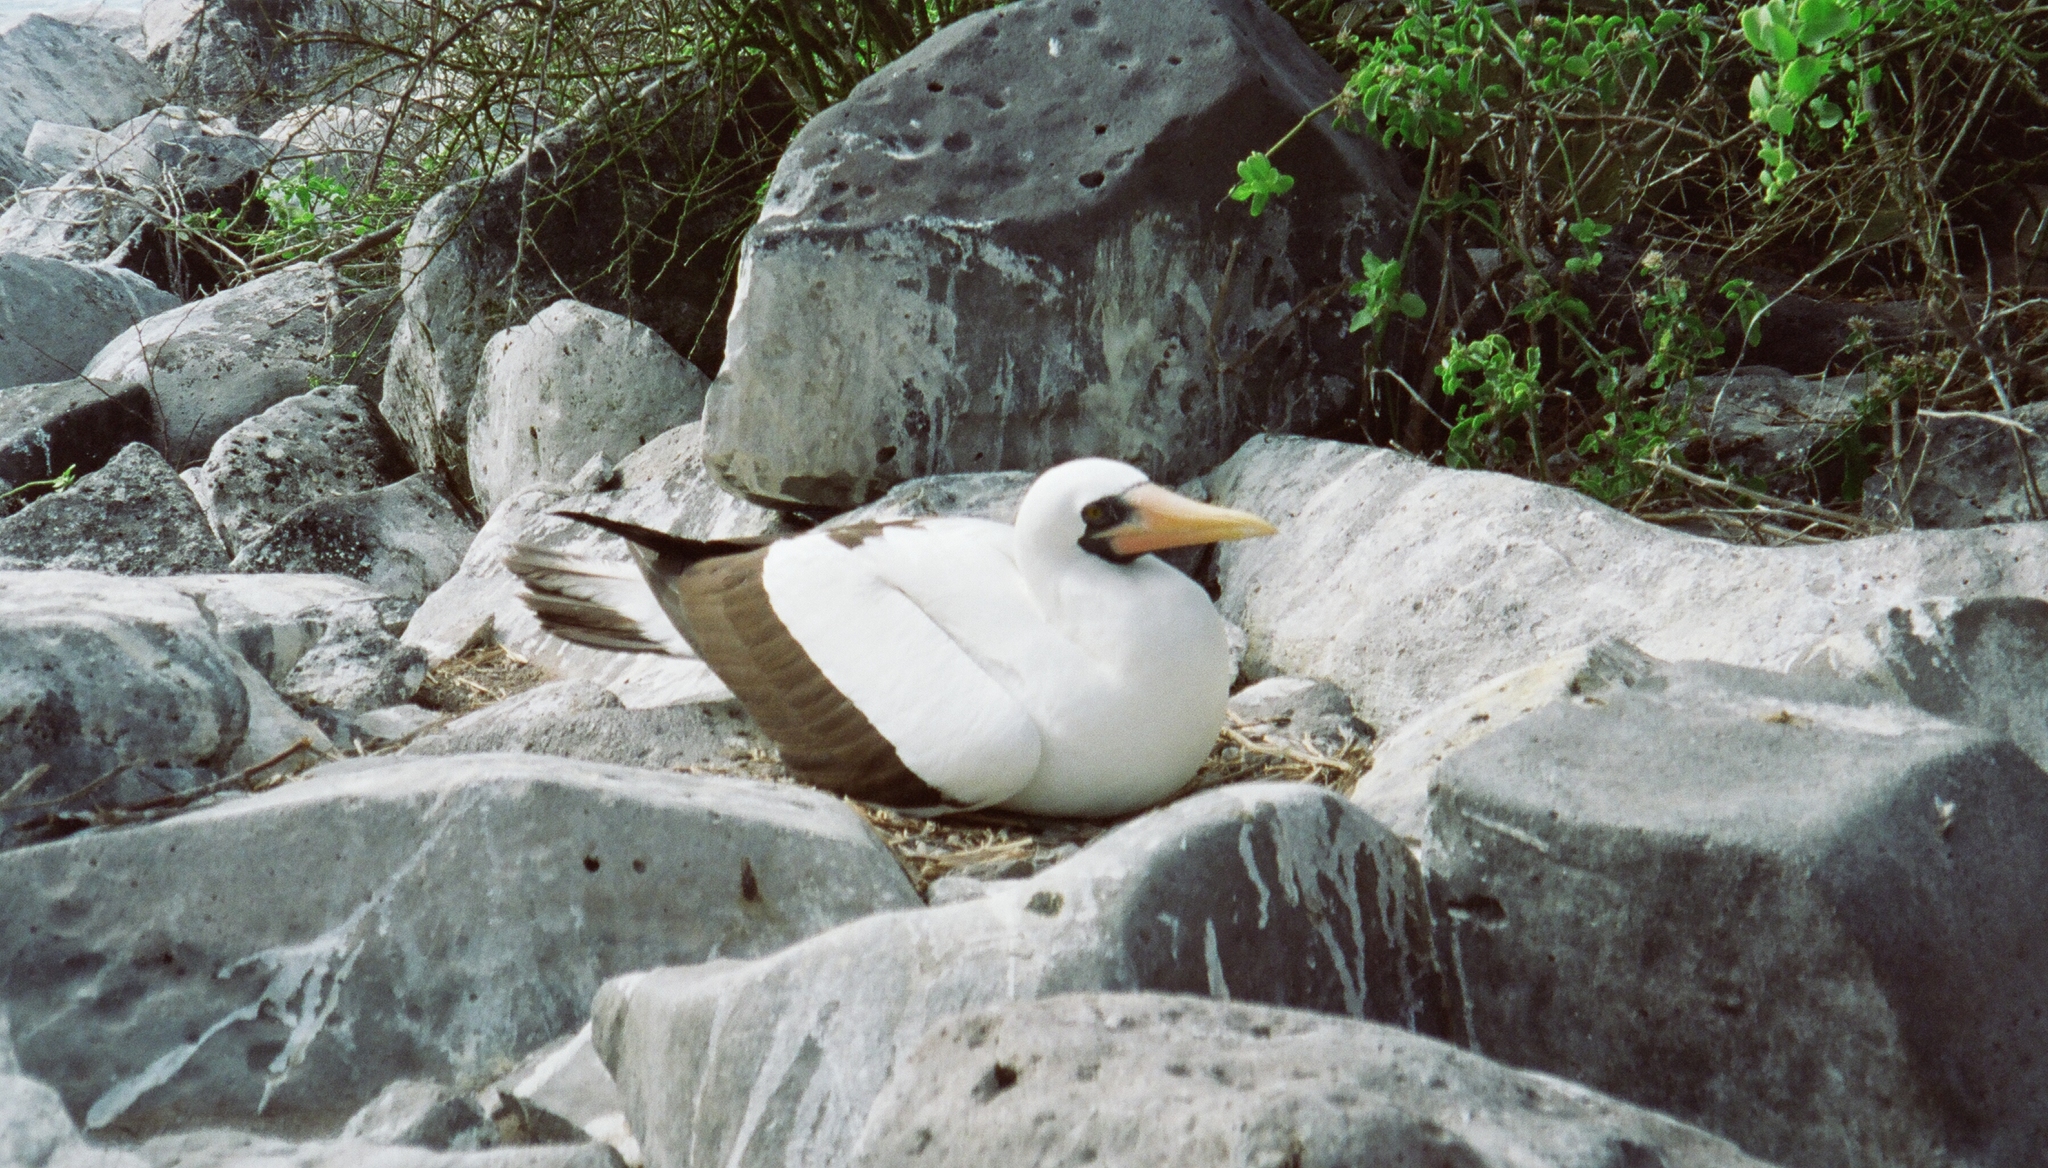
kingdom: Animalia
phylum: Chordata
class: Aves
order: Suliformes
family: Sulidae
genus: Sula
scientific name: Sula granti
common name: Nazca booby
